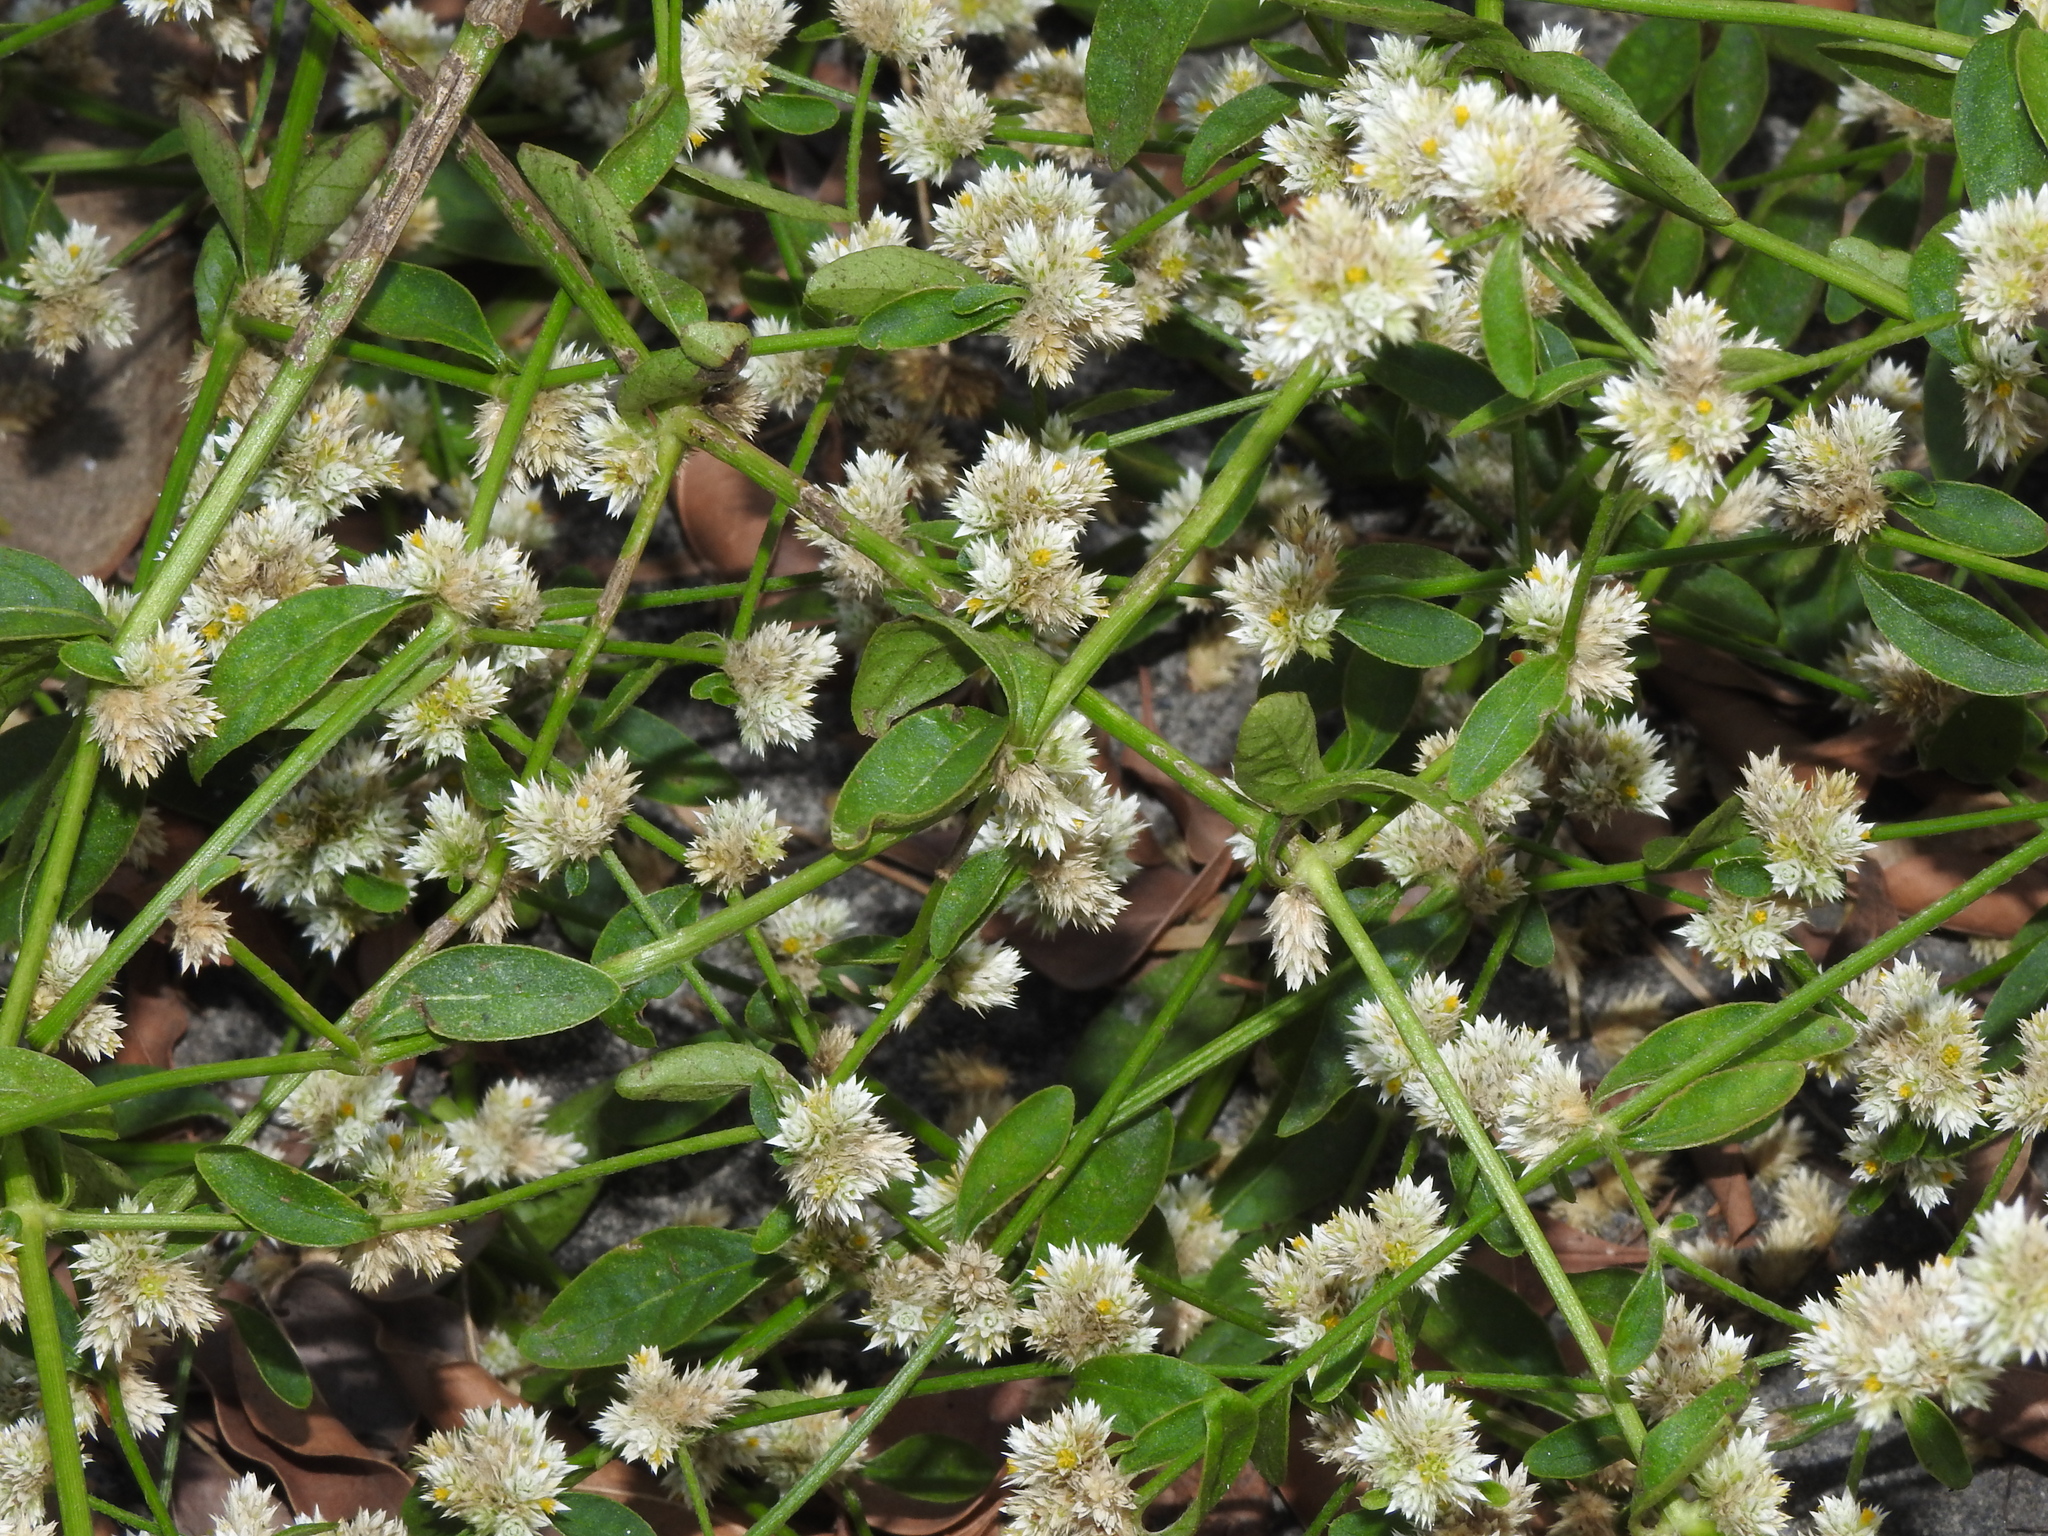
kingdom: Plantae
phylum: Tracheophyta
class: Magnoliopsida
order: Caryophyllales
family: Amaranthaceae
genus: Alternanthera
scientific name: Alternanthera bettzickiana
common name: Calico-plant
